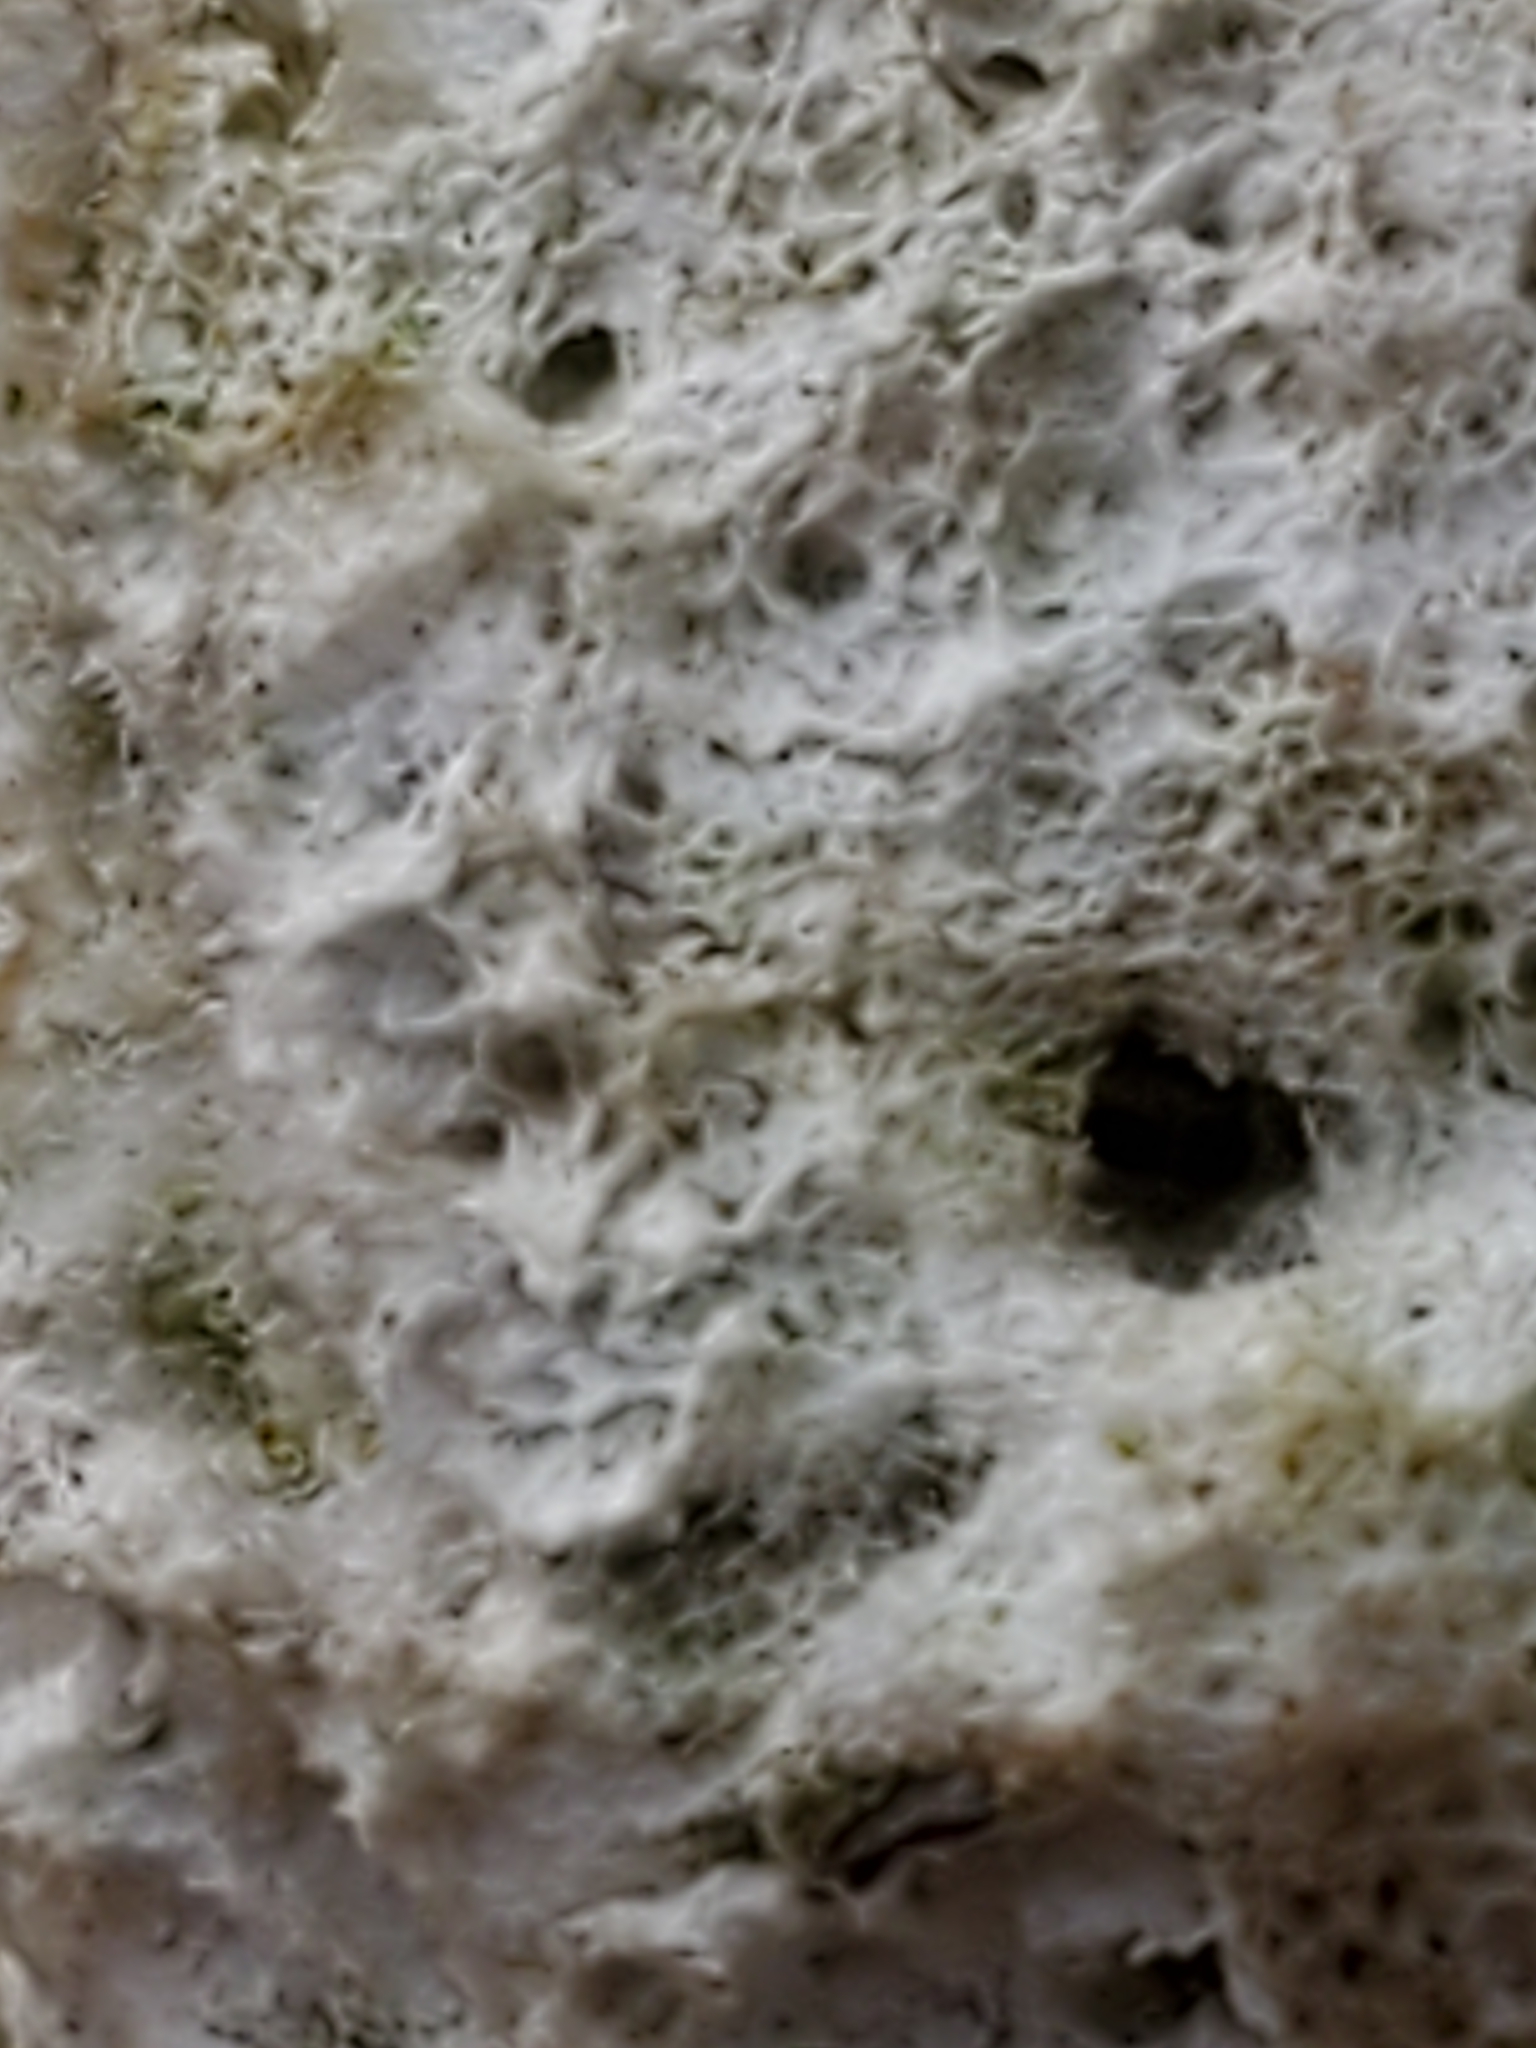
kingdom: Fungi
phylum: Basidiomycota
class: Agaricomycetes
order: Polyporales
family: Fomitopsidaceae
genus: Fomitopsis
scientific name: Fomitopsis betulina
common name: Birch polypore
